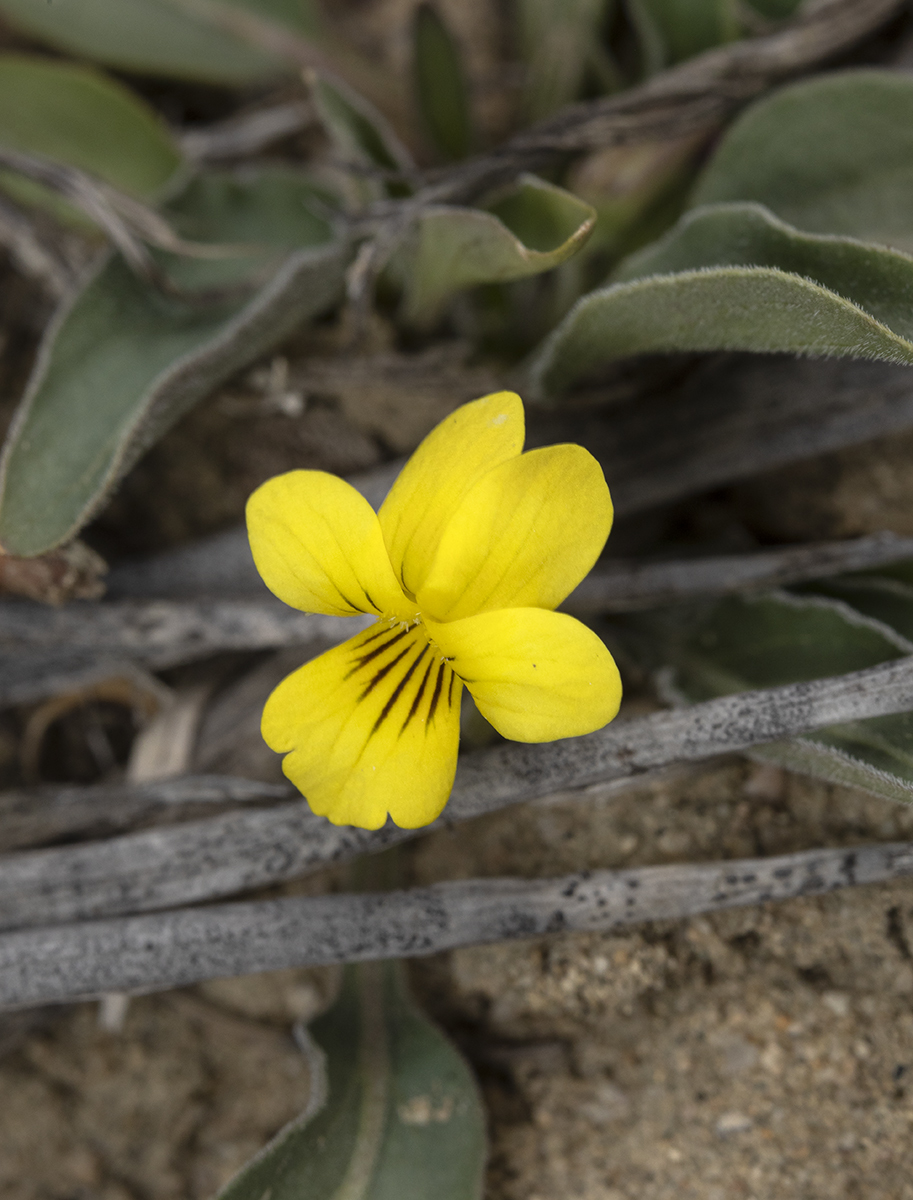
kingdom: Plantae
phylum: Tracheophyta
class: Magnoliopsida
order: Malpighiales
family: Violaceae
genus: Viola
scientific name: Viola nuttallii
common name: Yellow prairie violet
